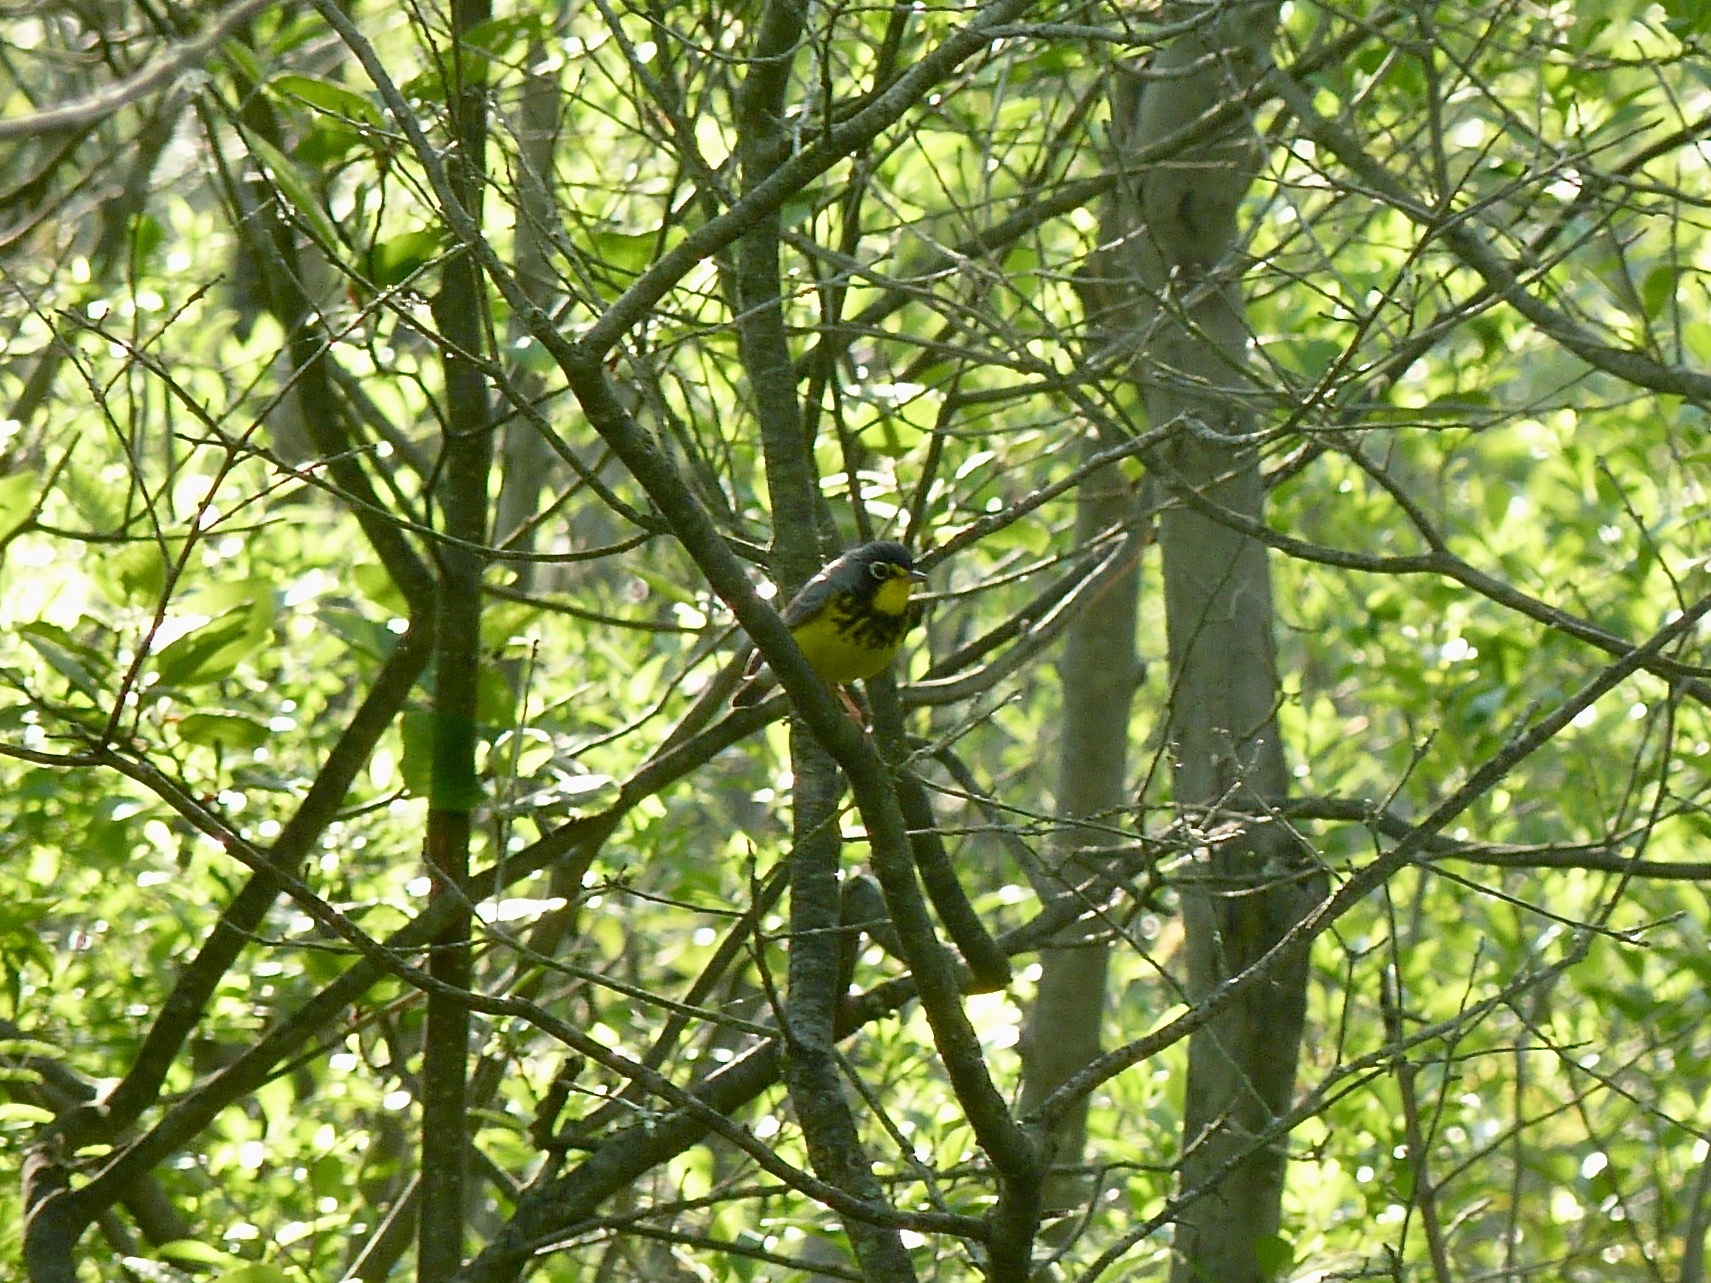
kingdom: Animalia
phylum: Chordata
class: Aves
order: Passeriformes
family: Parulidae
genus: Cardellina
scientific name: Cardellina canadensis
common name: Canada warbler
